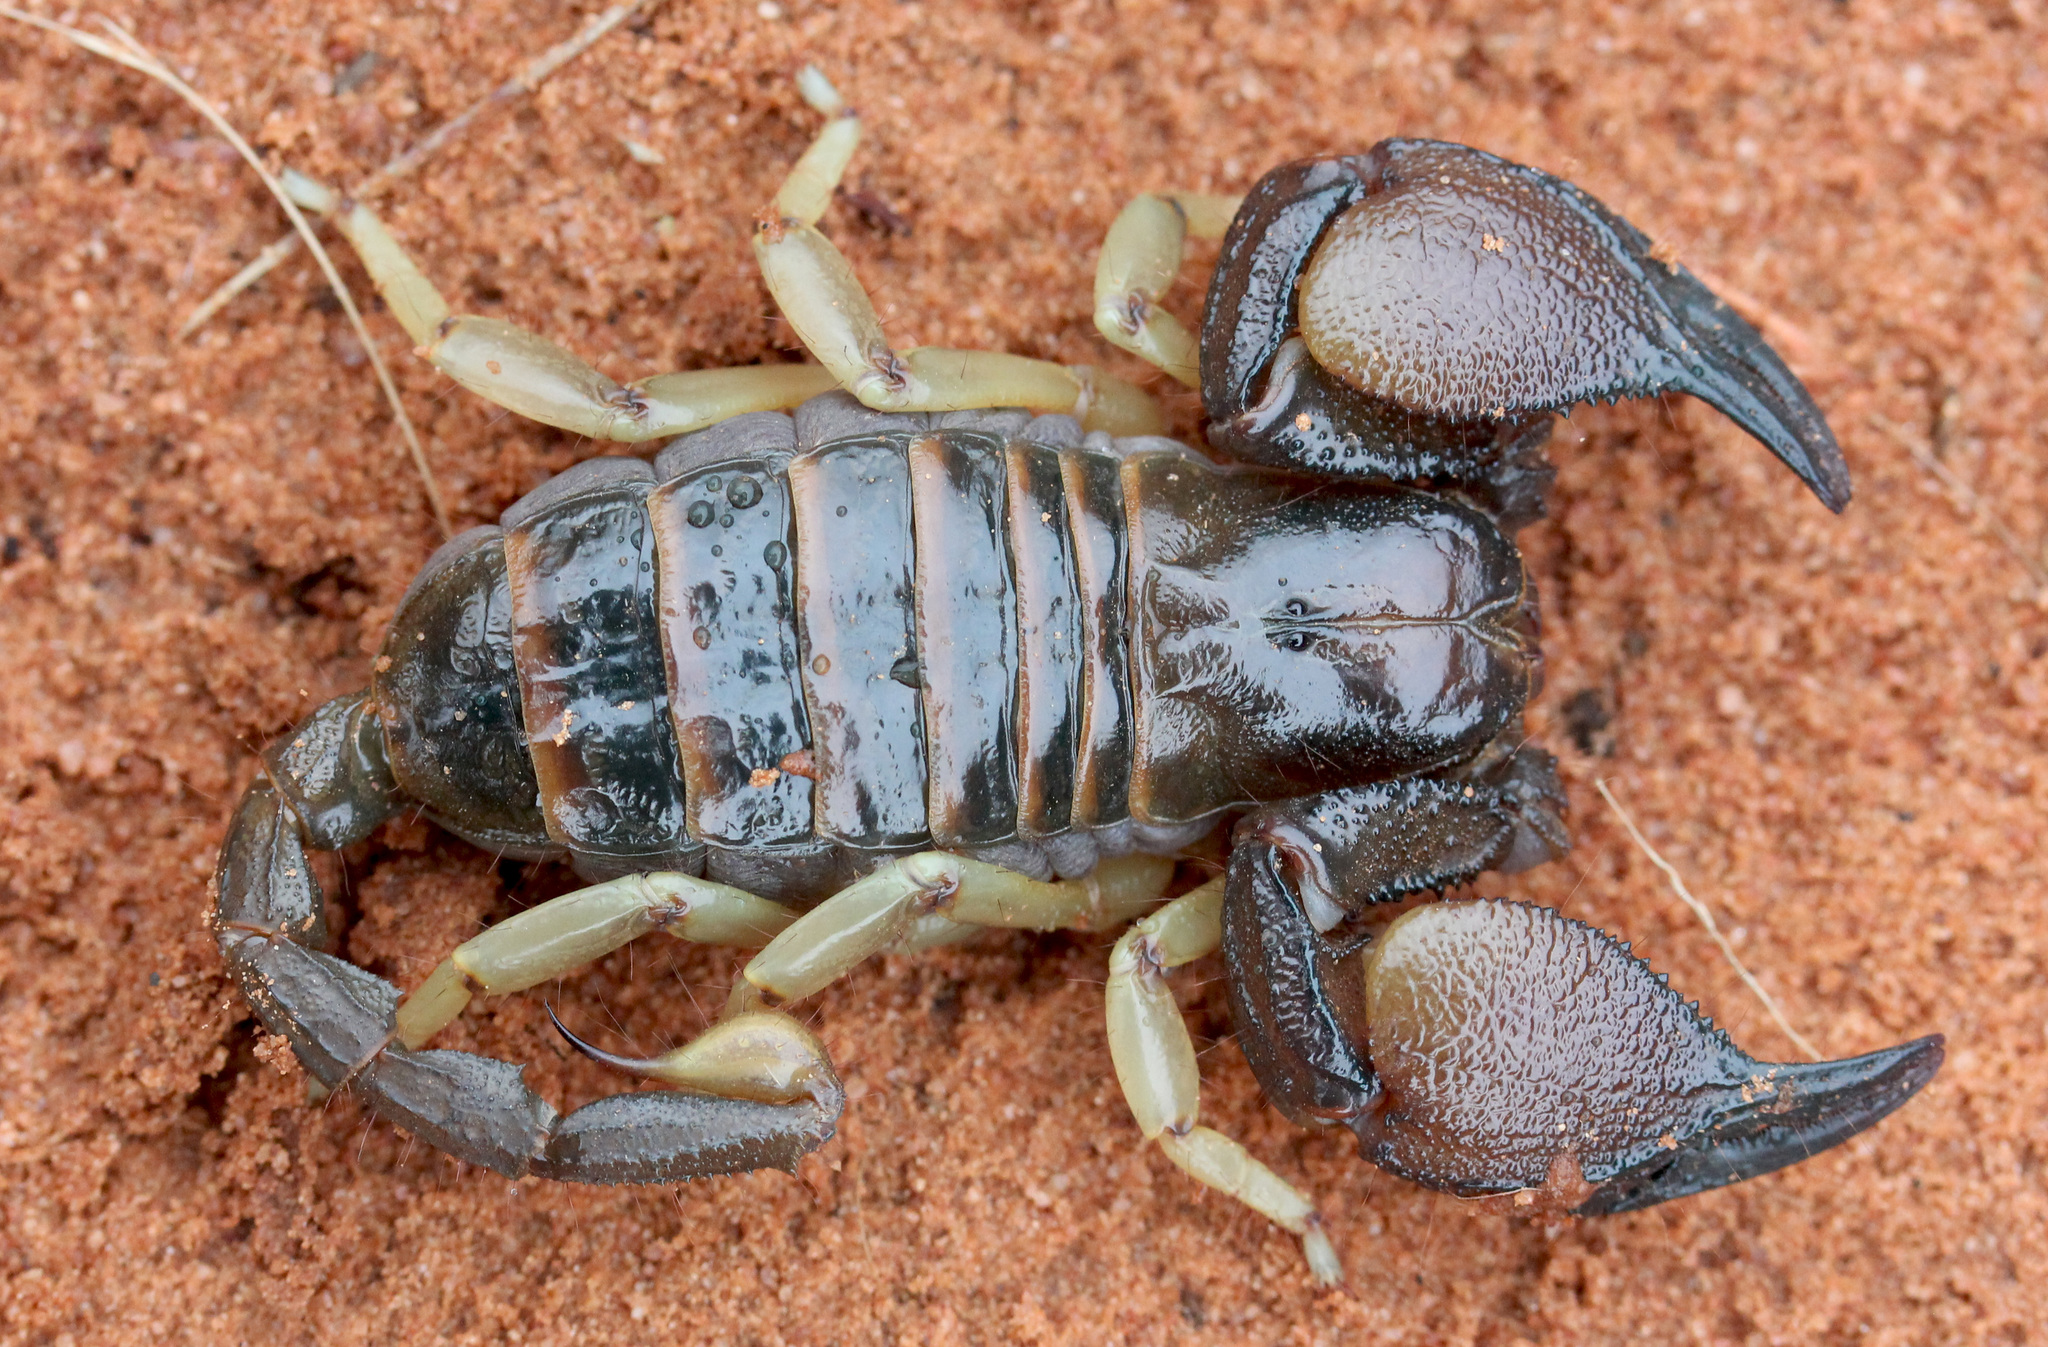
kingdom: Animalia
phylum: Arthropoda
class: Arachnida
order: Scorpiones
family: Scorpionidae
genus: Opistophthalmus
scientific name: Opistophthalmus carinatus
